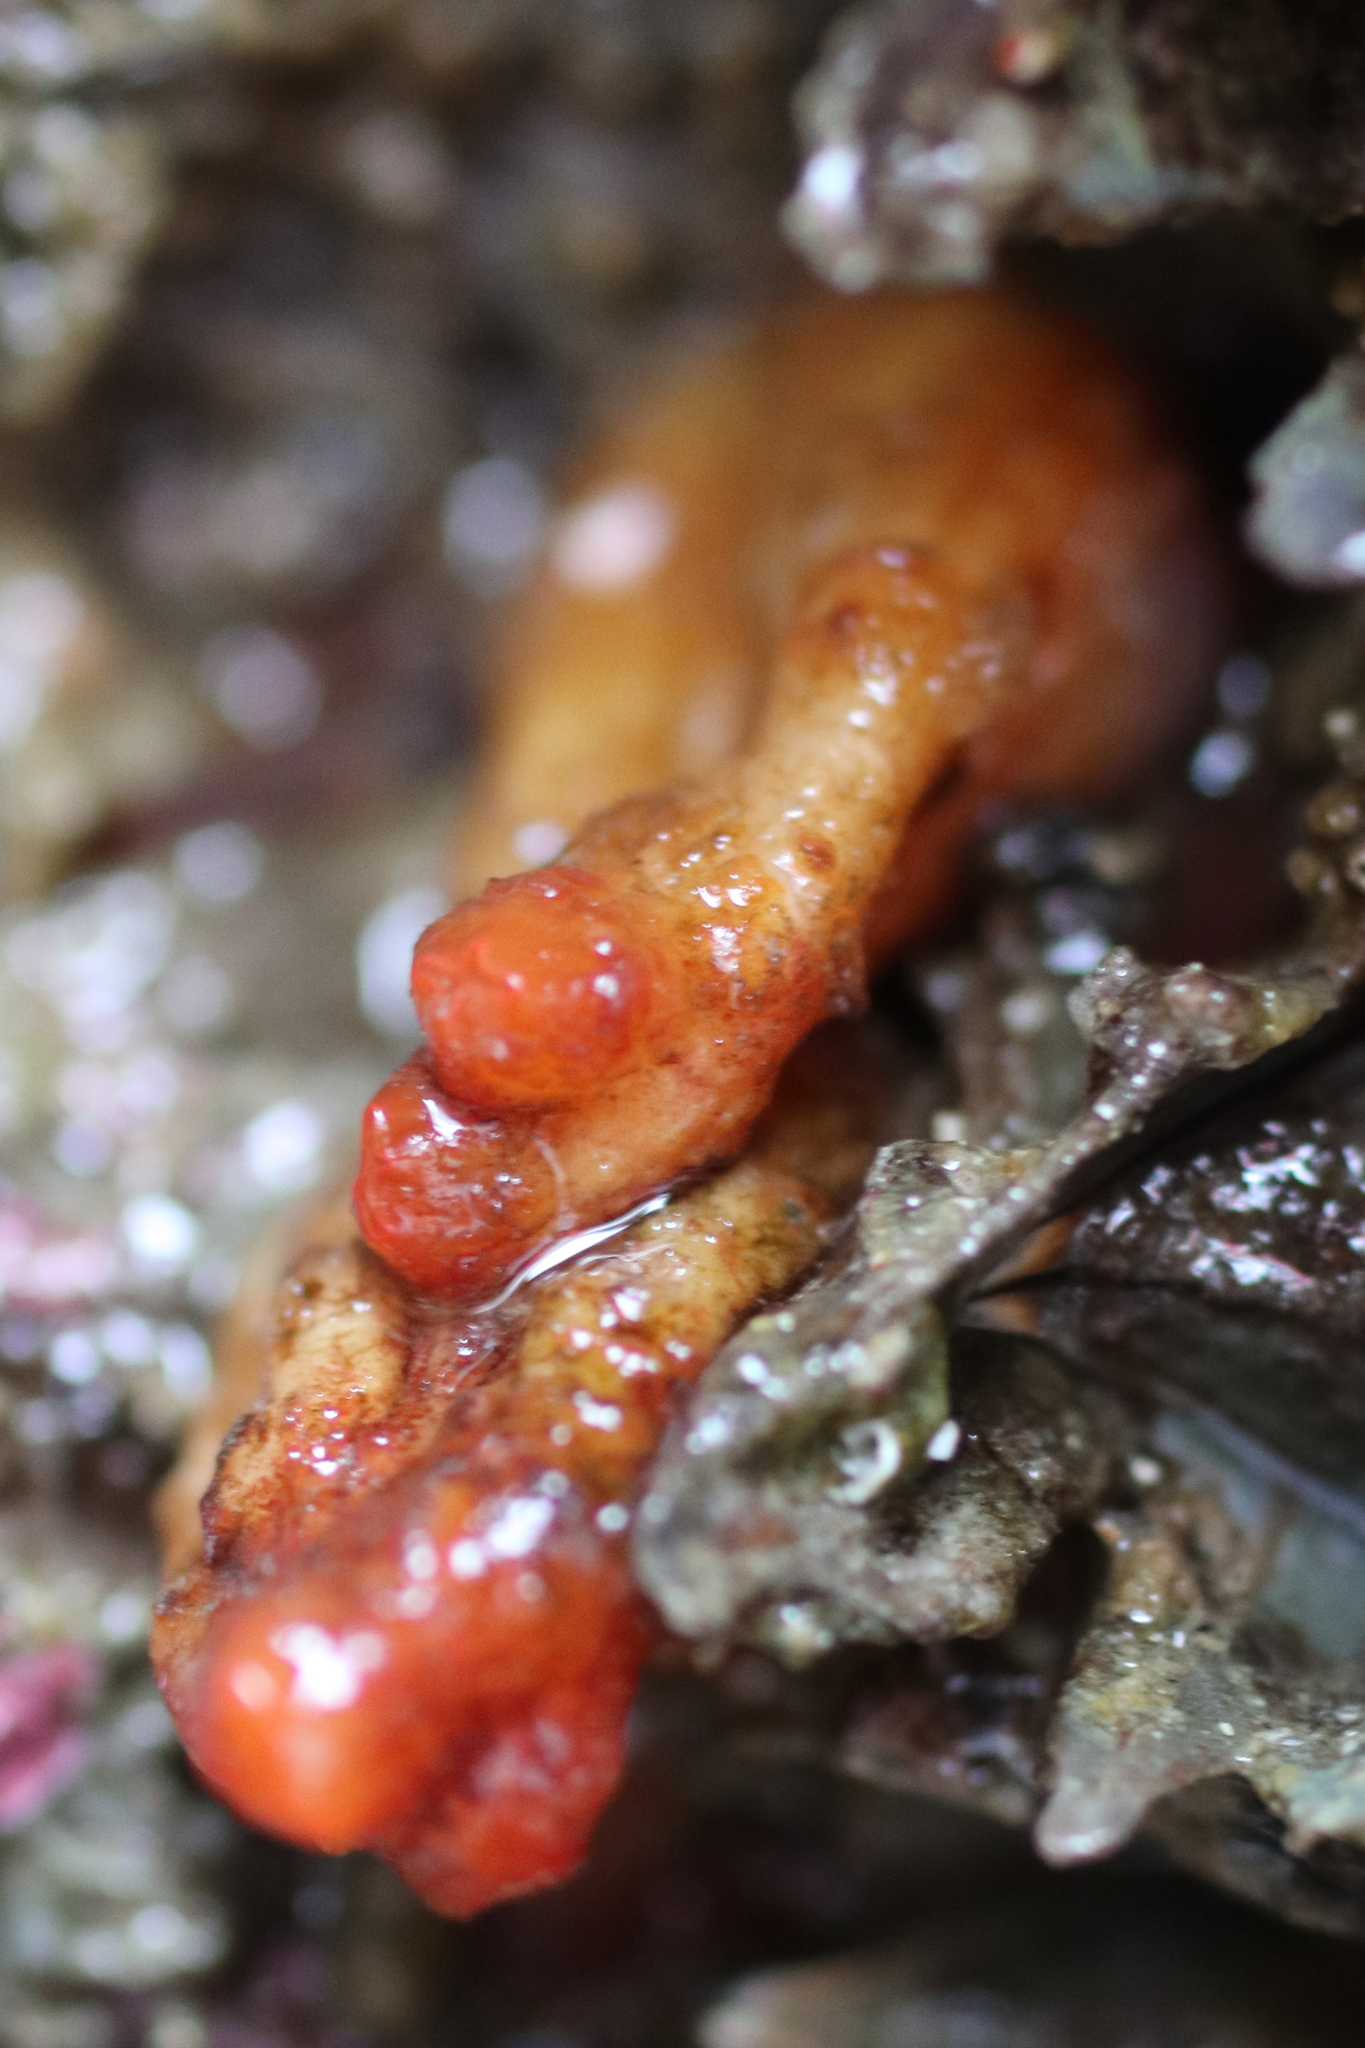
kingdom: Animalia
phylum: Chordata
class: Ascidiacea
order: Stolidobranchia
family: Styelidae
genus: Styela
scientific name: Styela truncata
